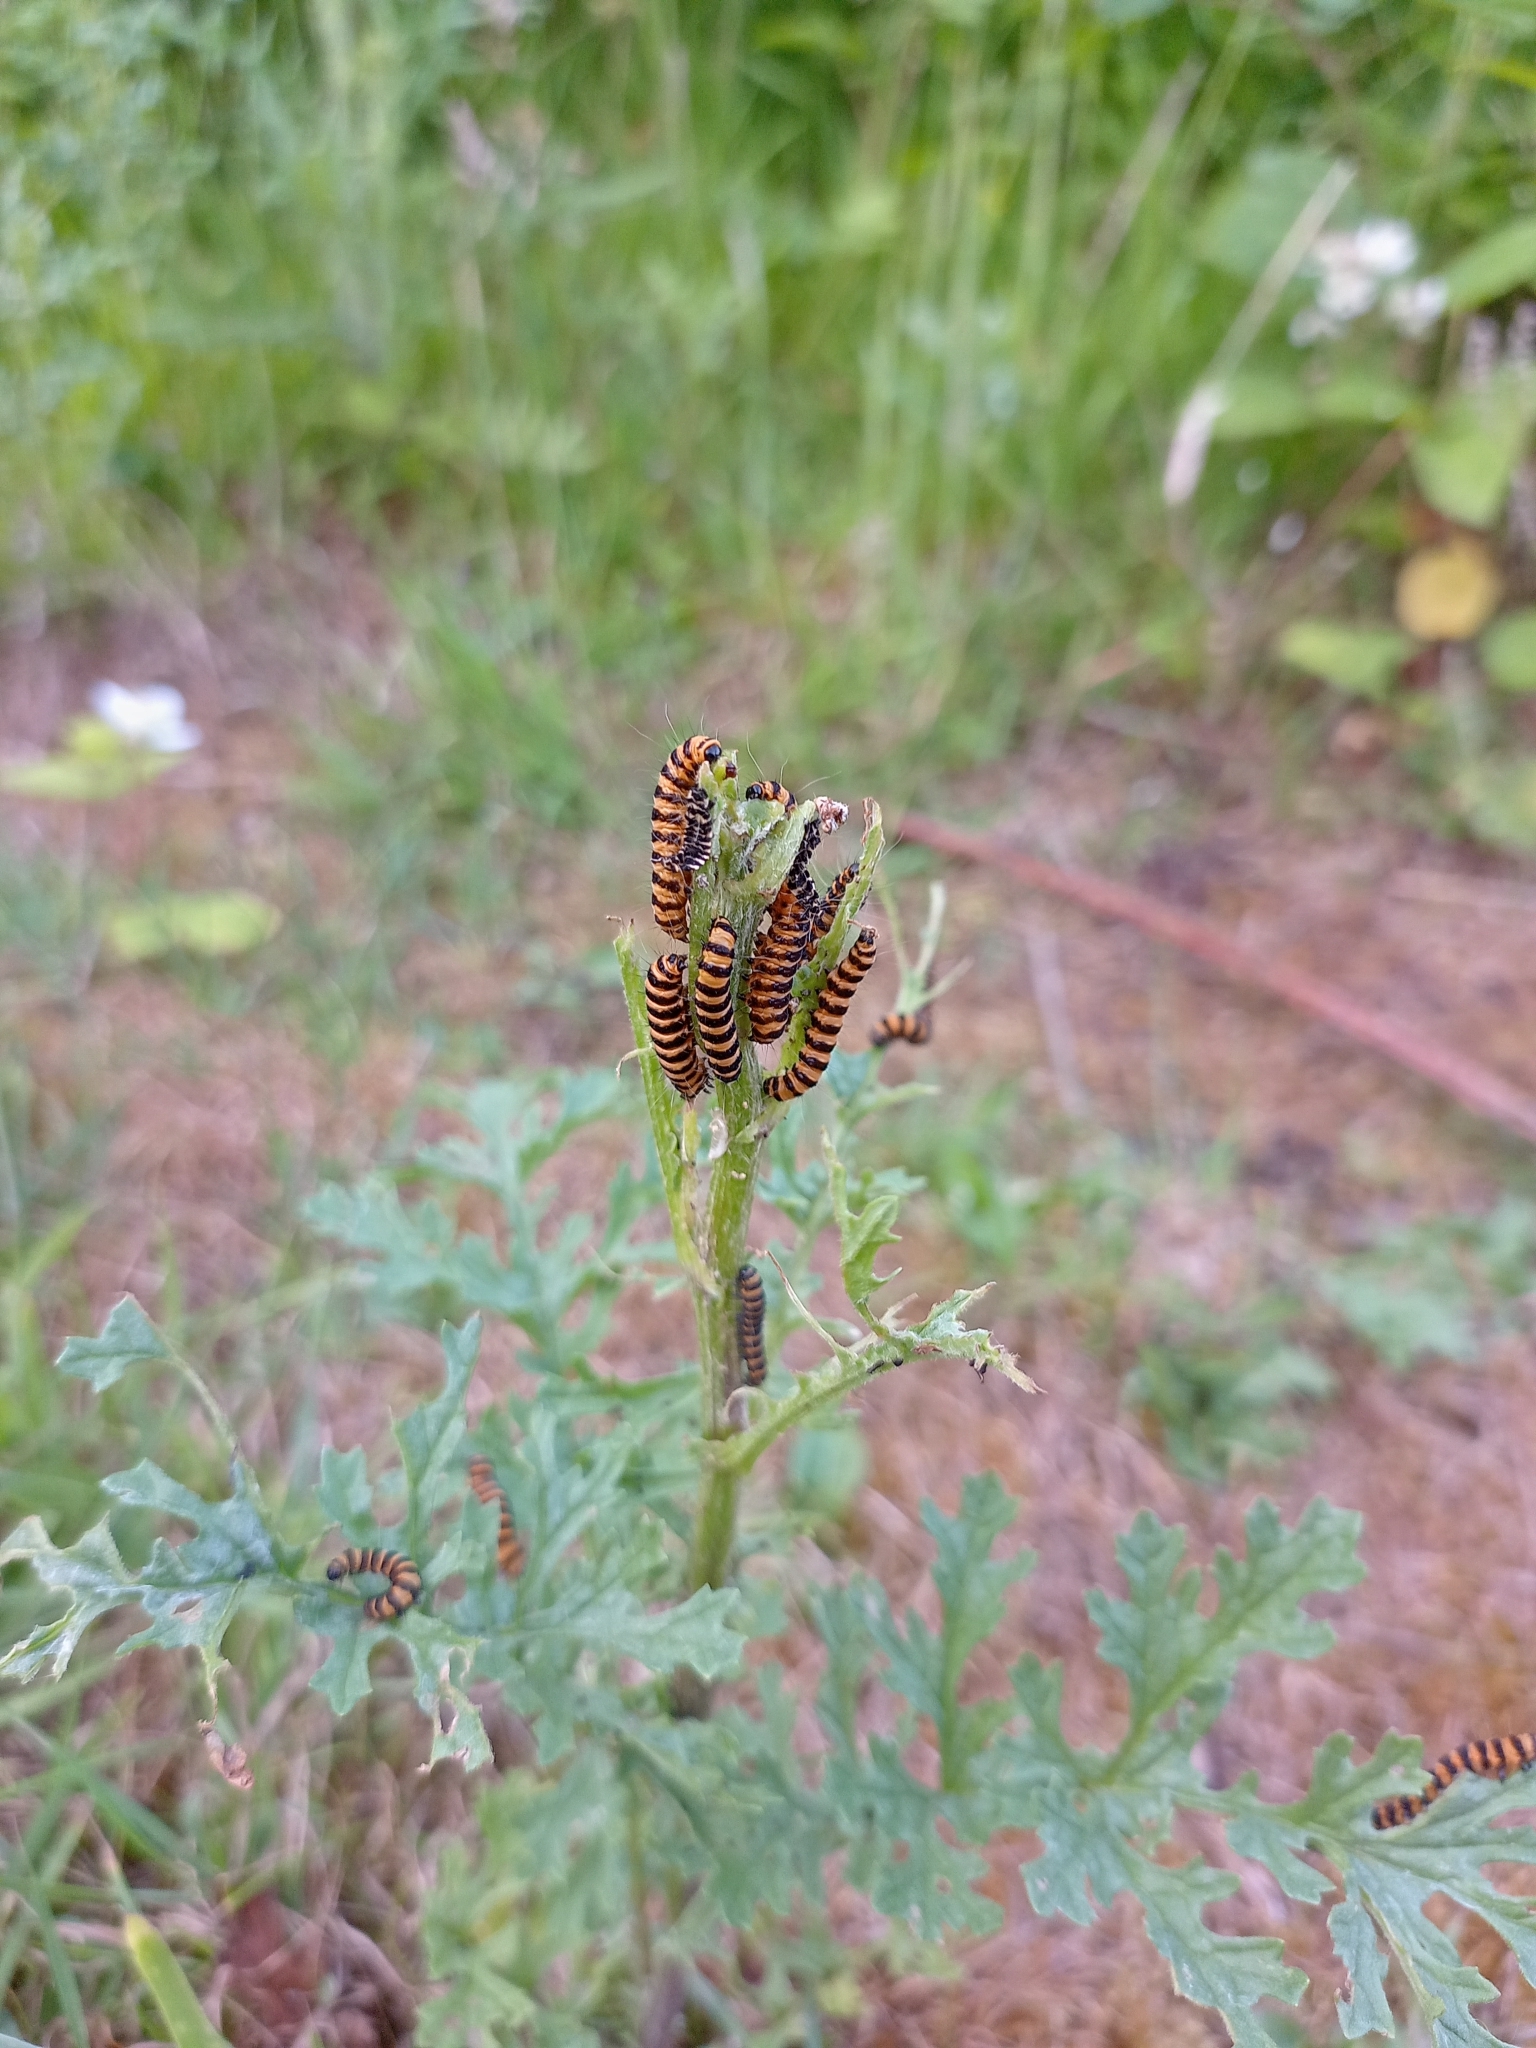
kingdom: Animalia
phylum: Arthropoda
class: Insecta
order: Lepidoptera
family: Erebidae
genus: Tyria
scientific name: Tyria jacobaeae
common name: Cinnabar
